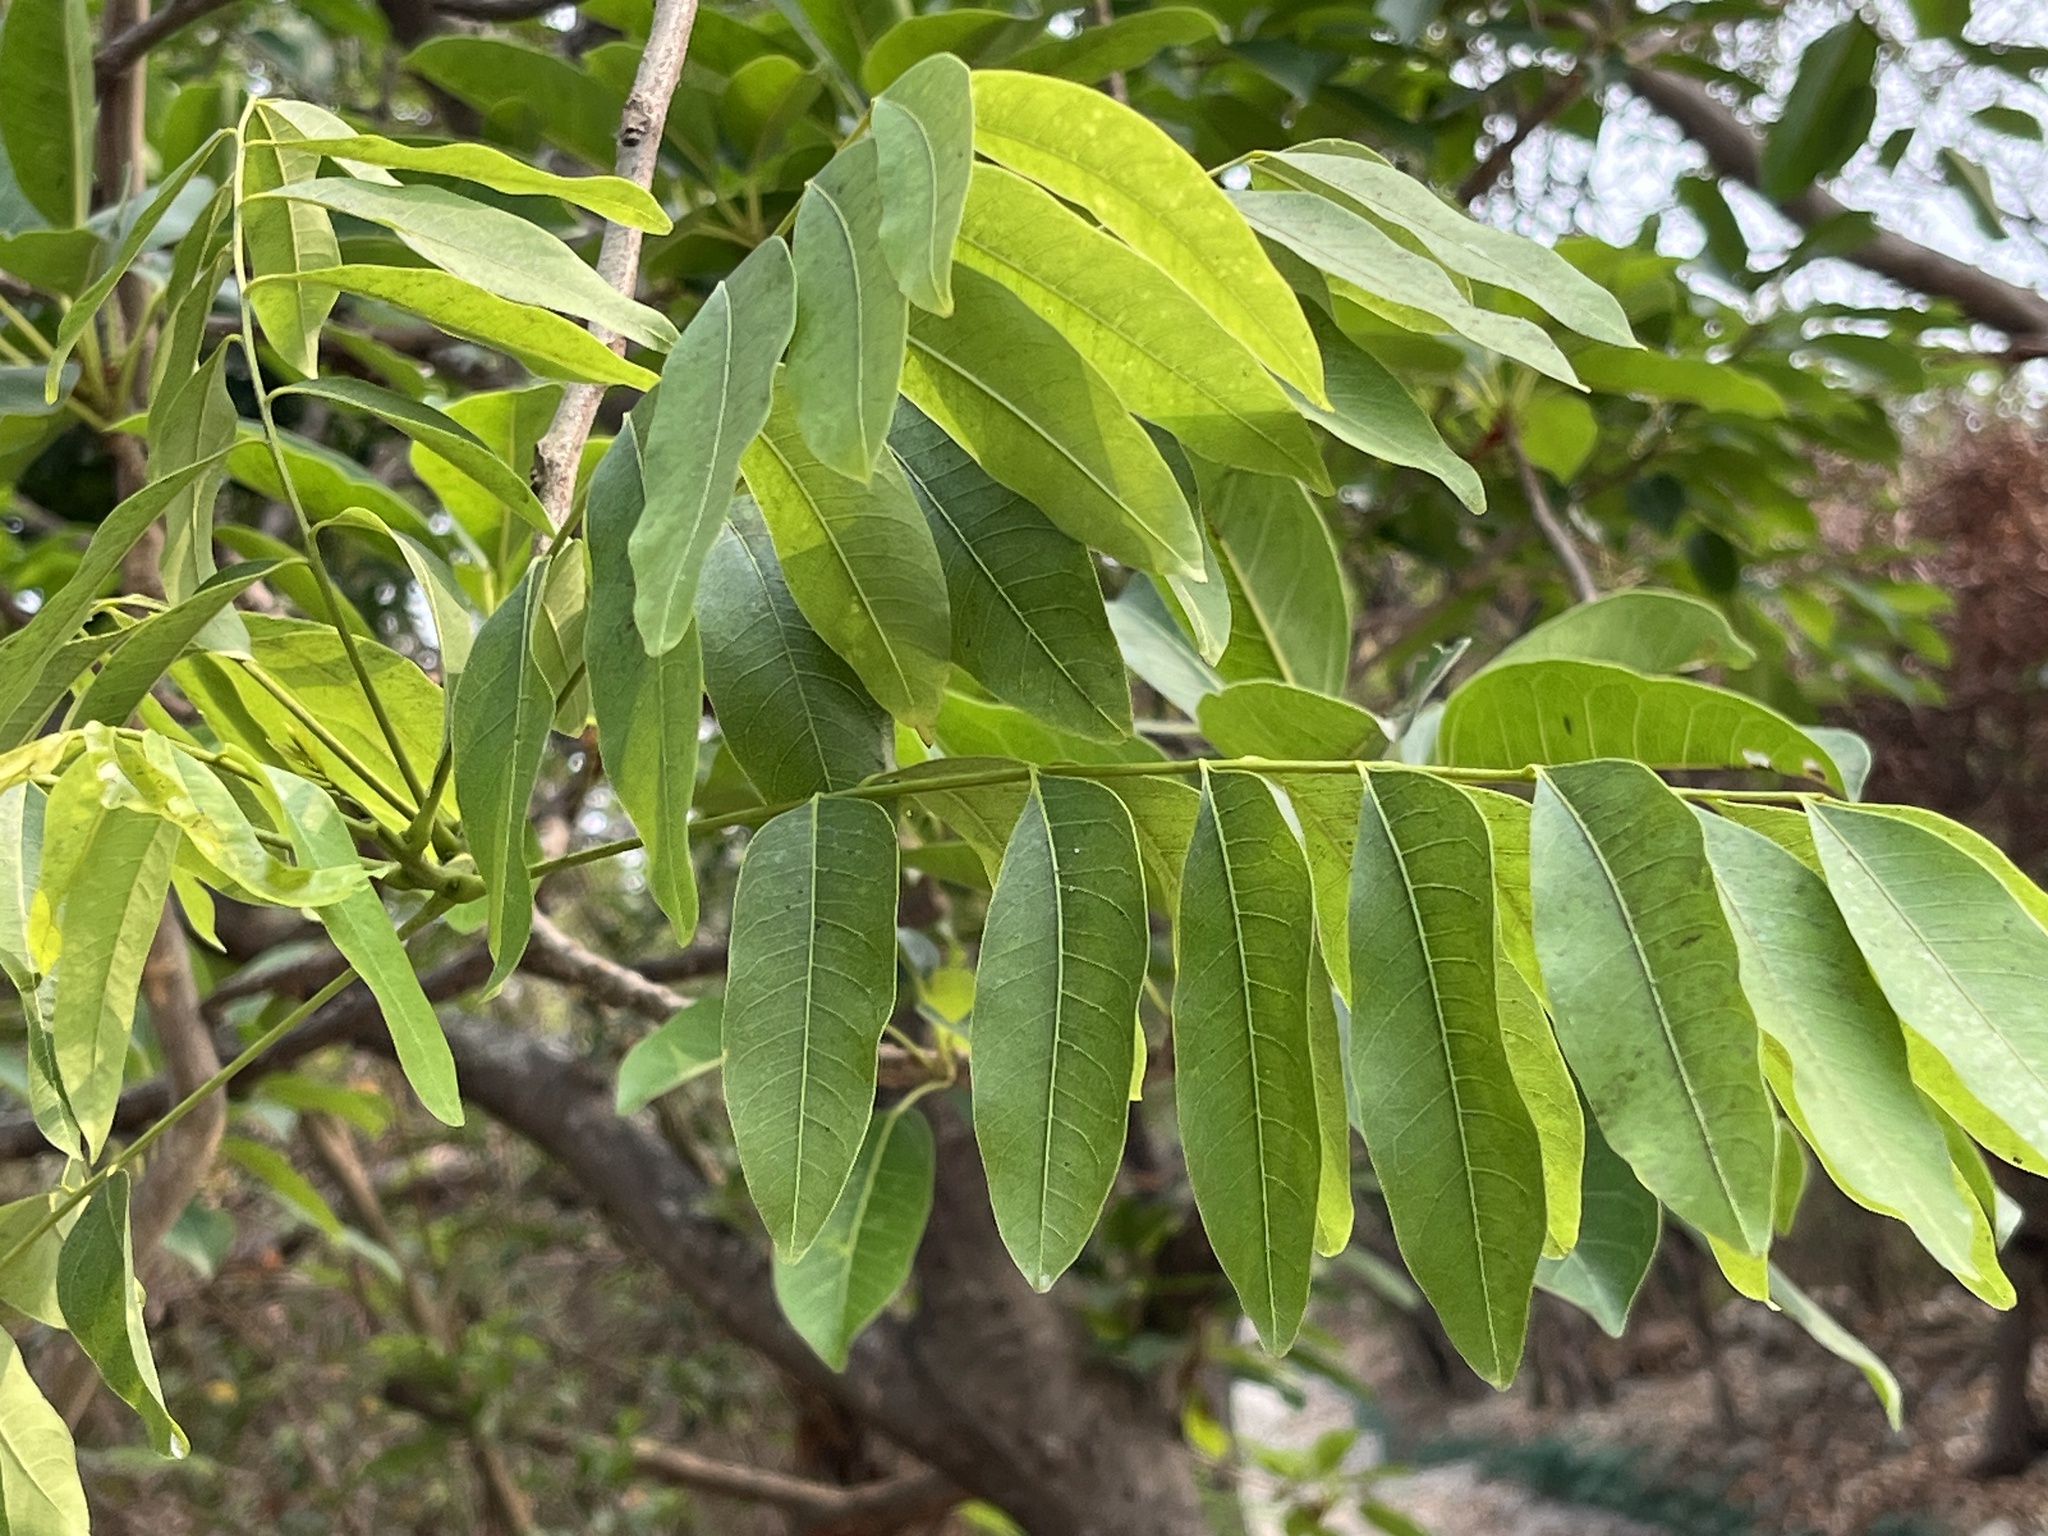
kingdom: Plantae
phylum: Tracheophyta
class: Magnoliopsida
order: Sapindales
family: Sapindaceae
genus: Sapindus
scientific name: Sapindus mukorossi
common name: Chinese soapberry
